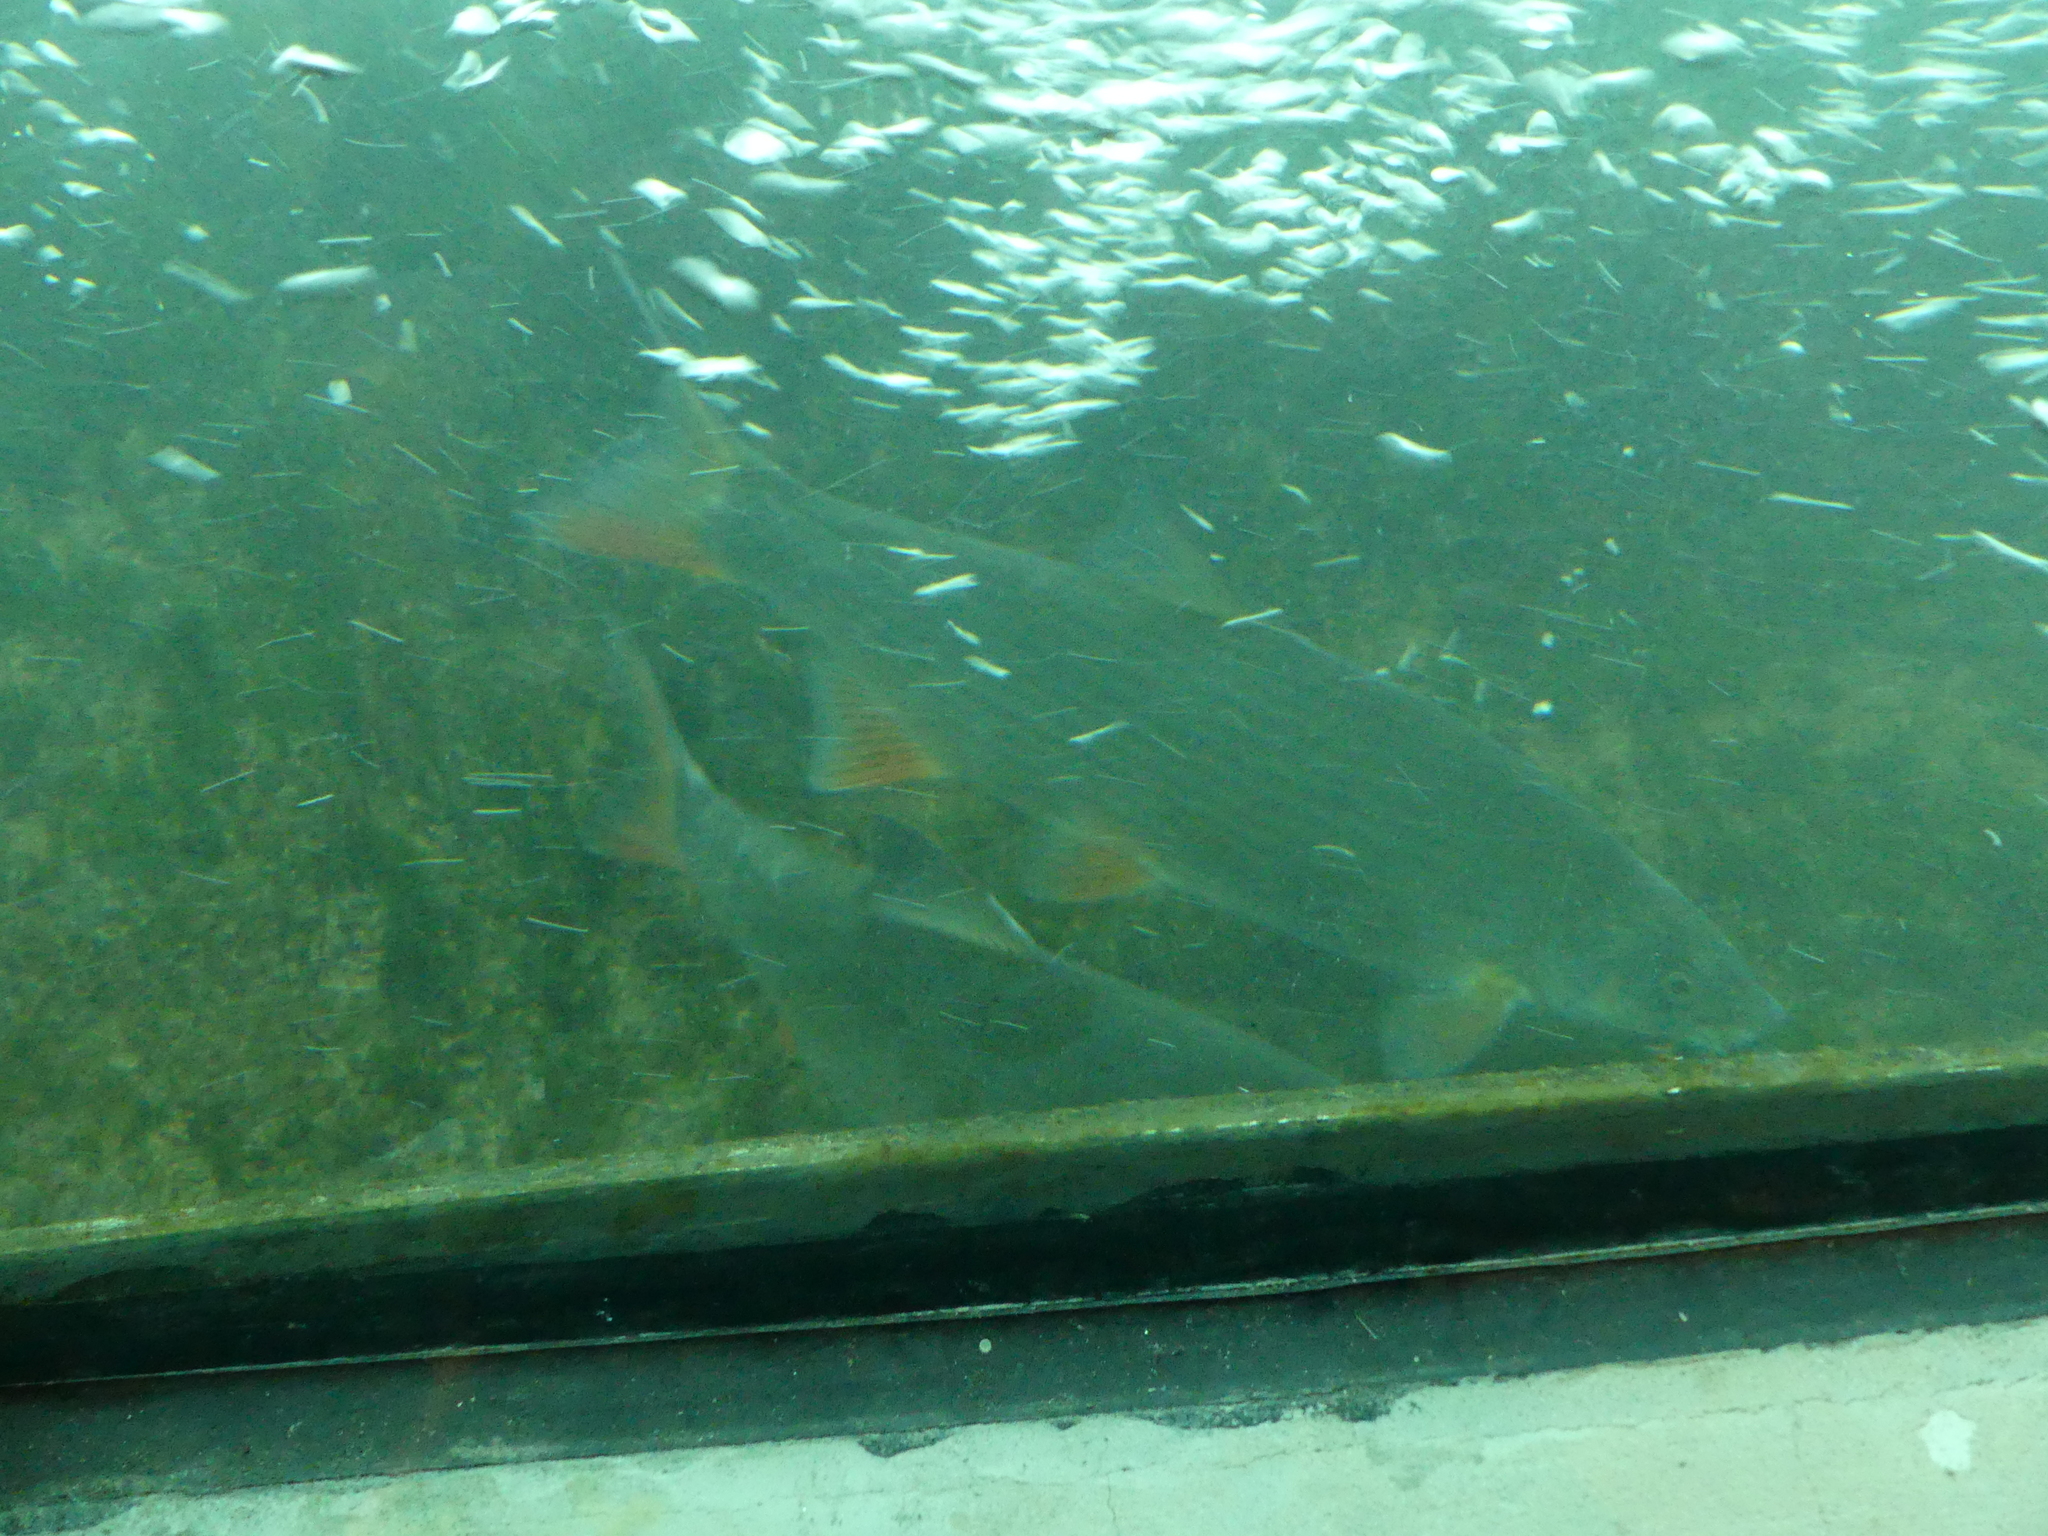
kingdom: Animalia
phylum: Chordata
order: Cypriniformes
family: Cyprinidae
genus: Chondrostoma
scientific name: Chondrostoma nasus
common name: Nase
